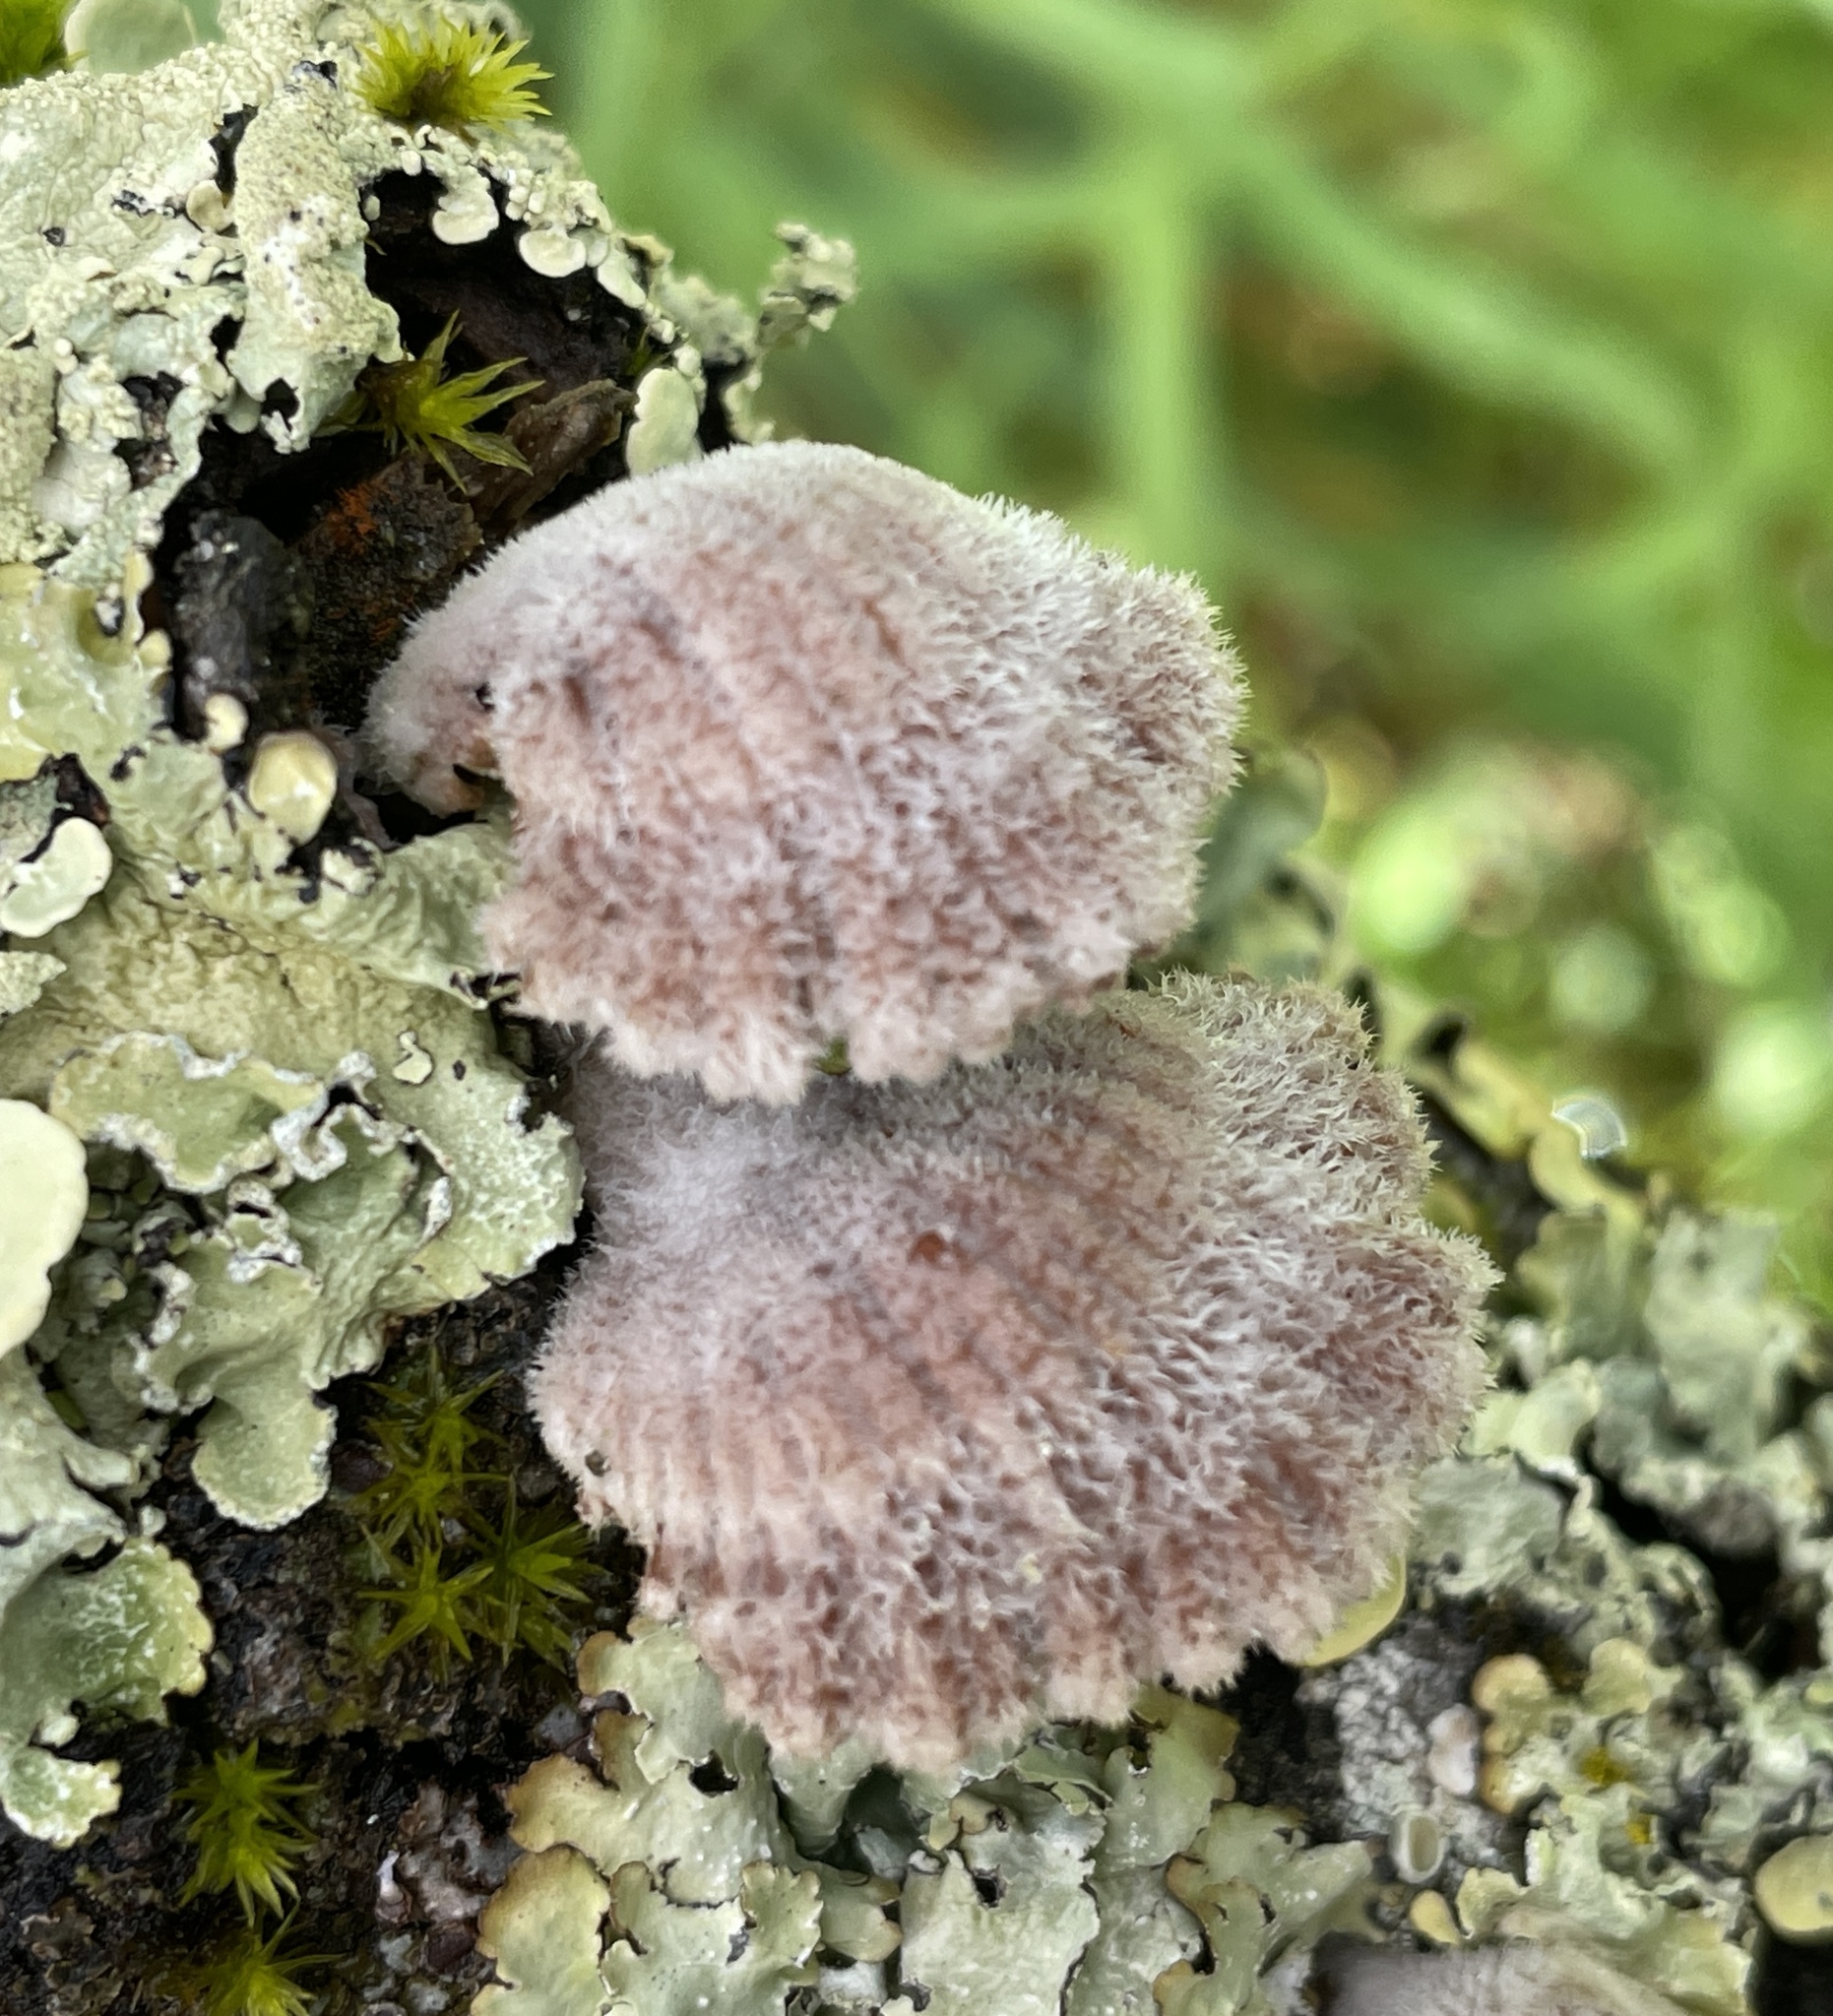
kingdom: Fungi
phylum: Basidiomycota
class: Agaricomycetes
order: Agaricales
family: Schizophyllaceae
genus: Schizophyllum
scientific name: Schizophyllum commune
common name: Common porecrust
